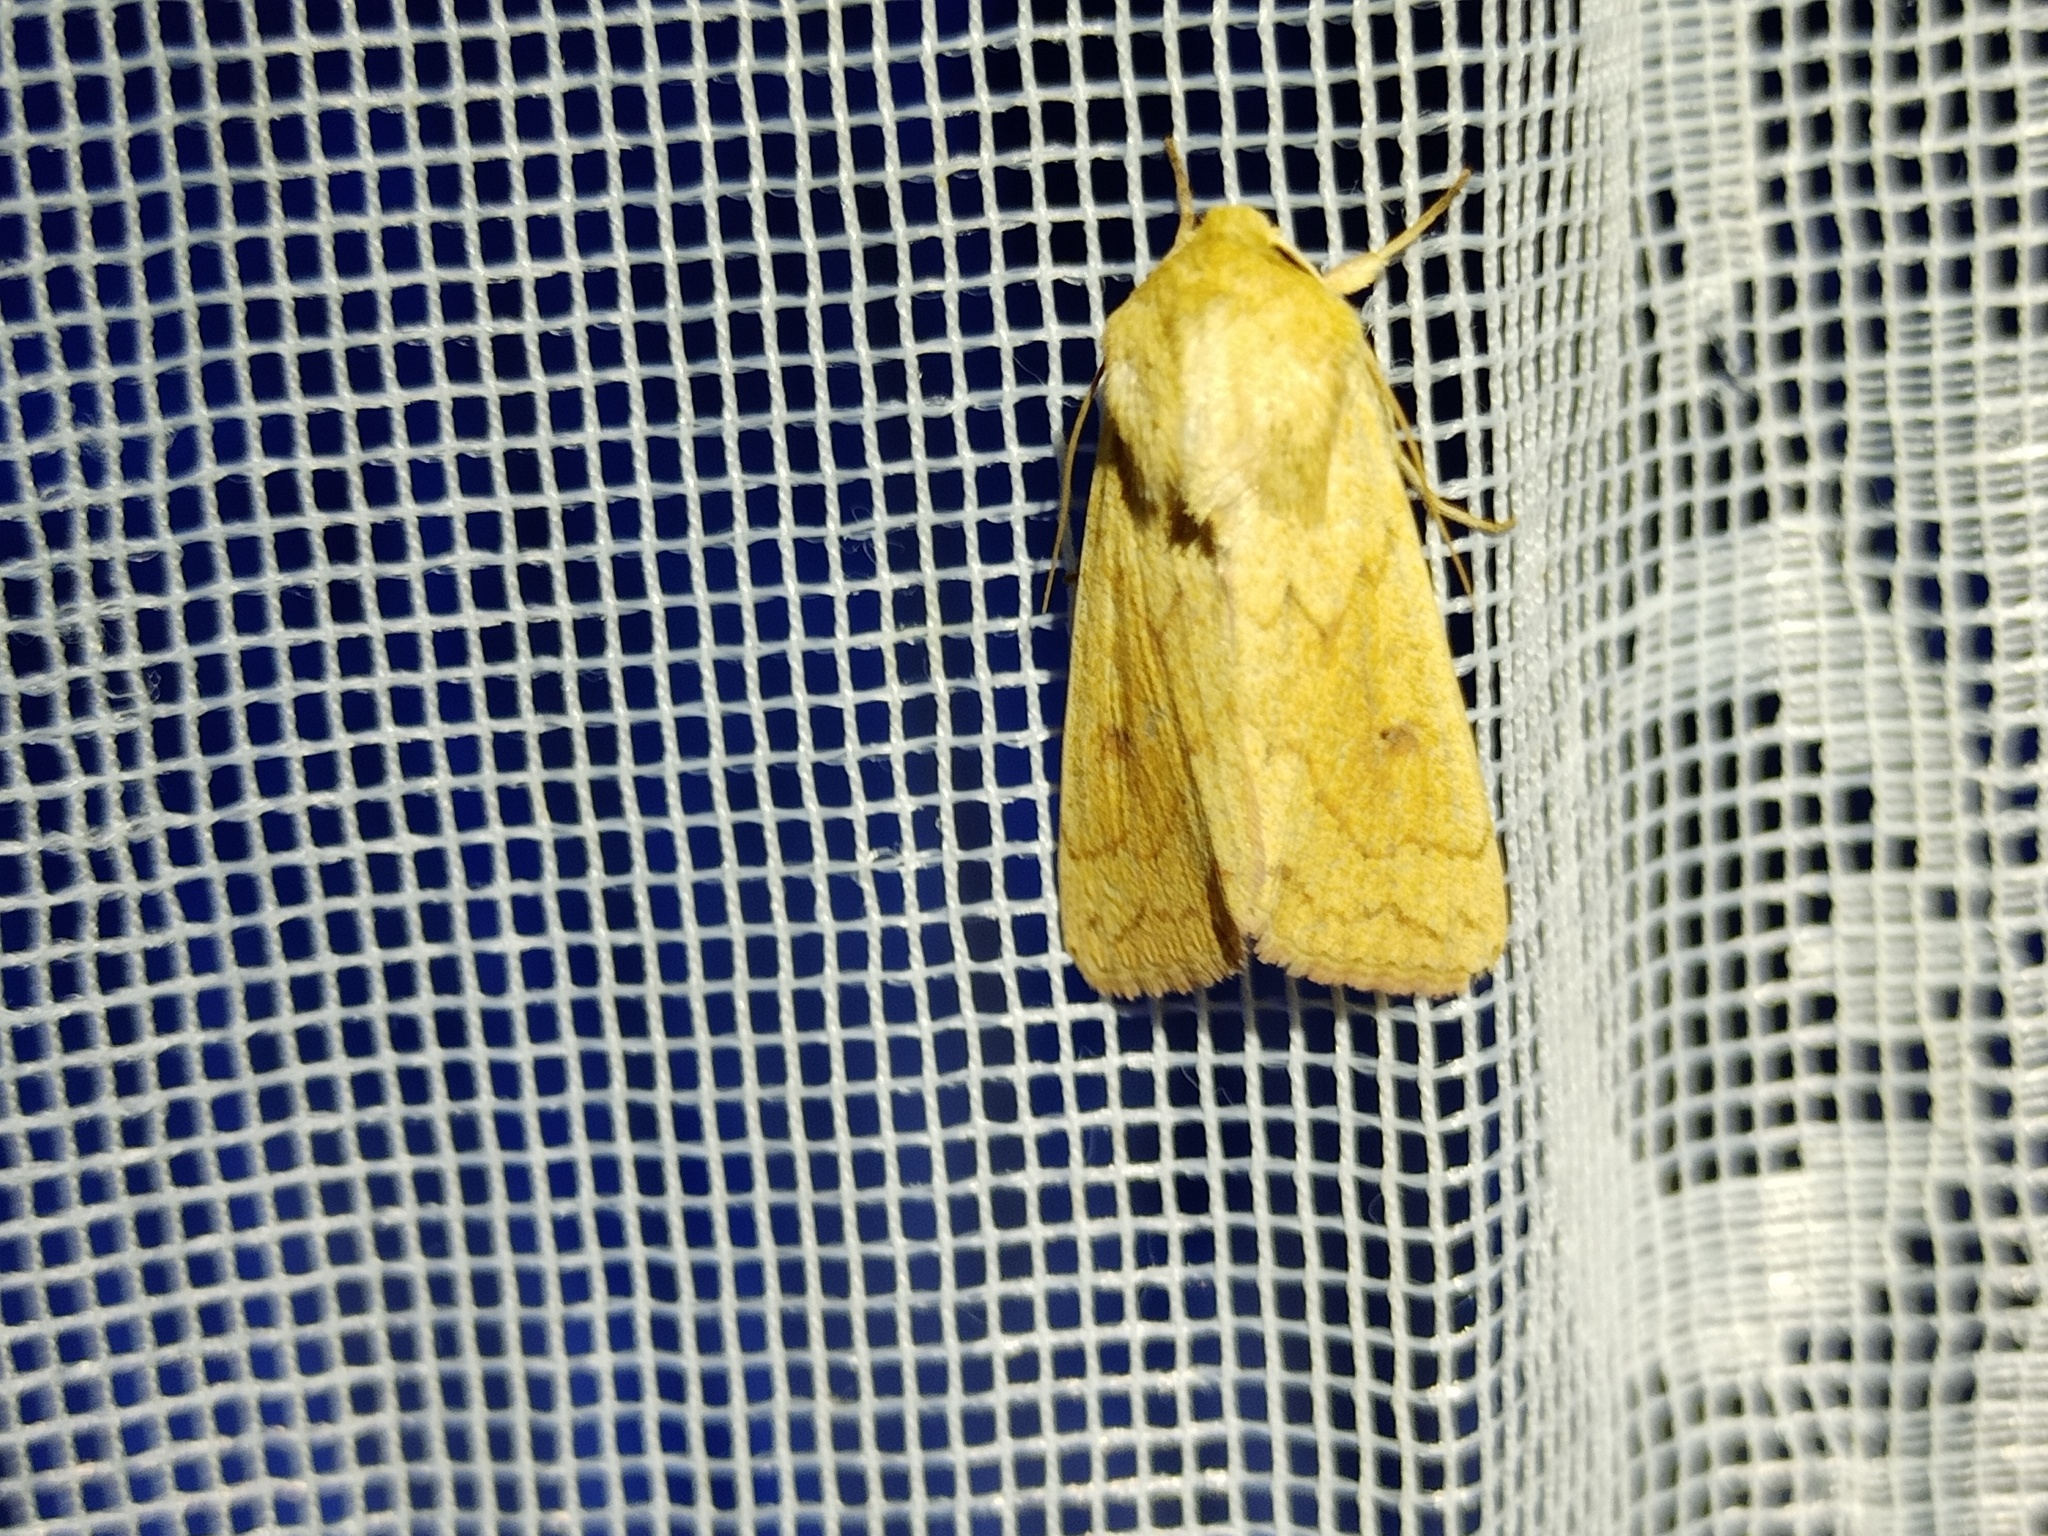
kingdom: Animalia
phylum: Arthropoda
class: Insecta
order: Lepidoptera
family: Noctuidae
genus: Mythimna
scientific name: Mythimna vitellina
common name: Delicate
